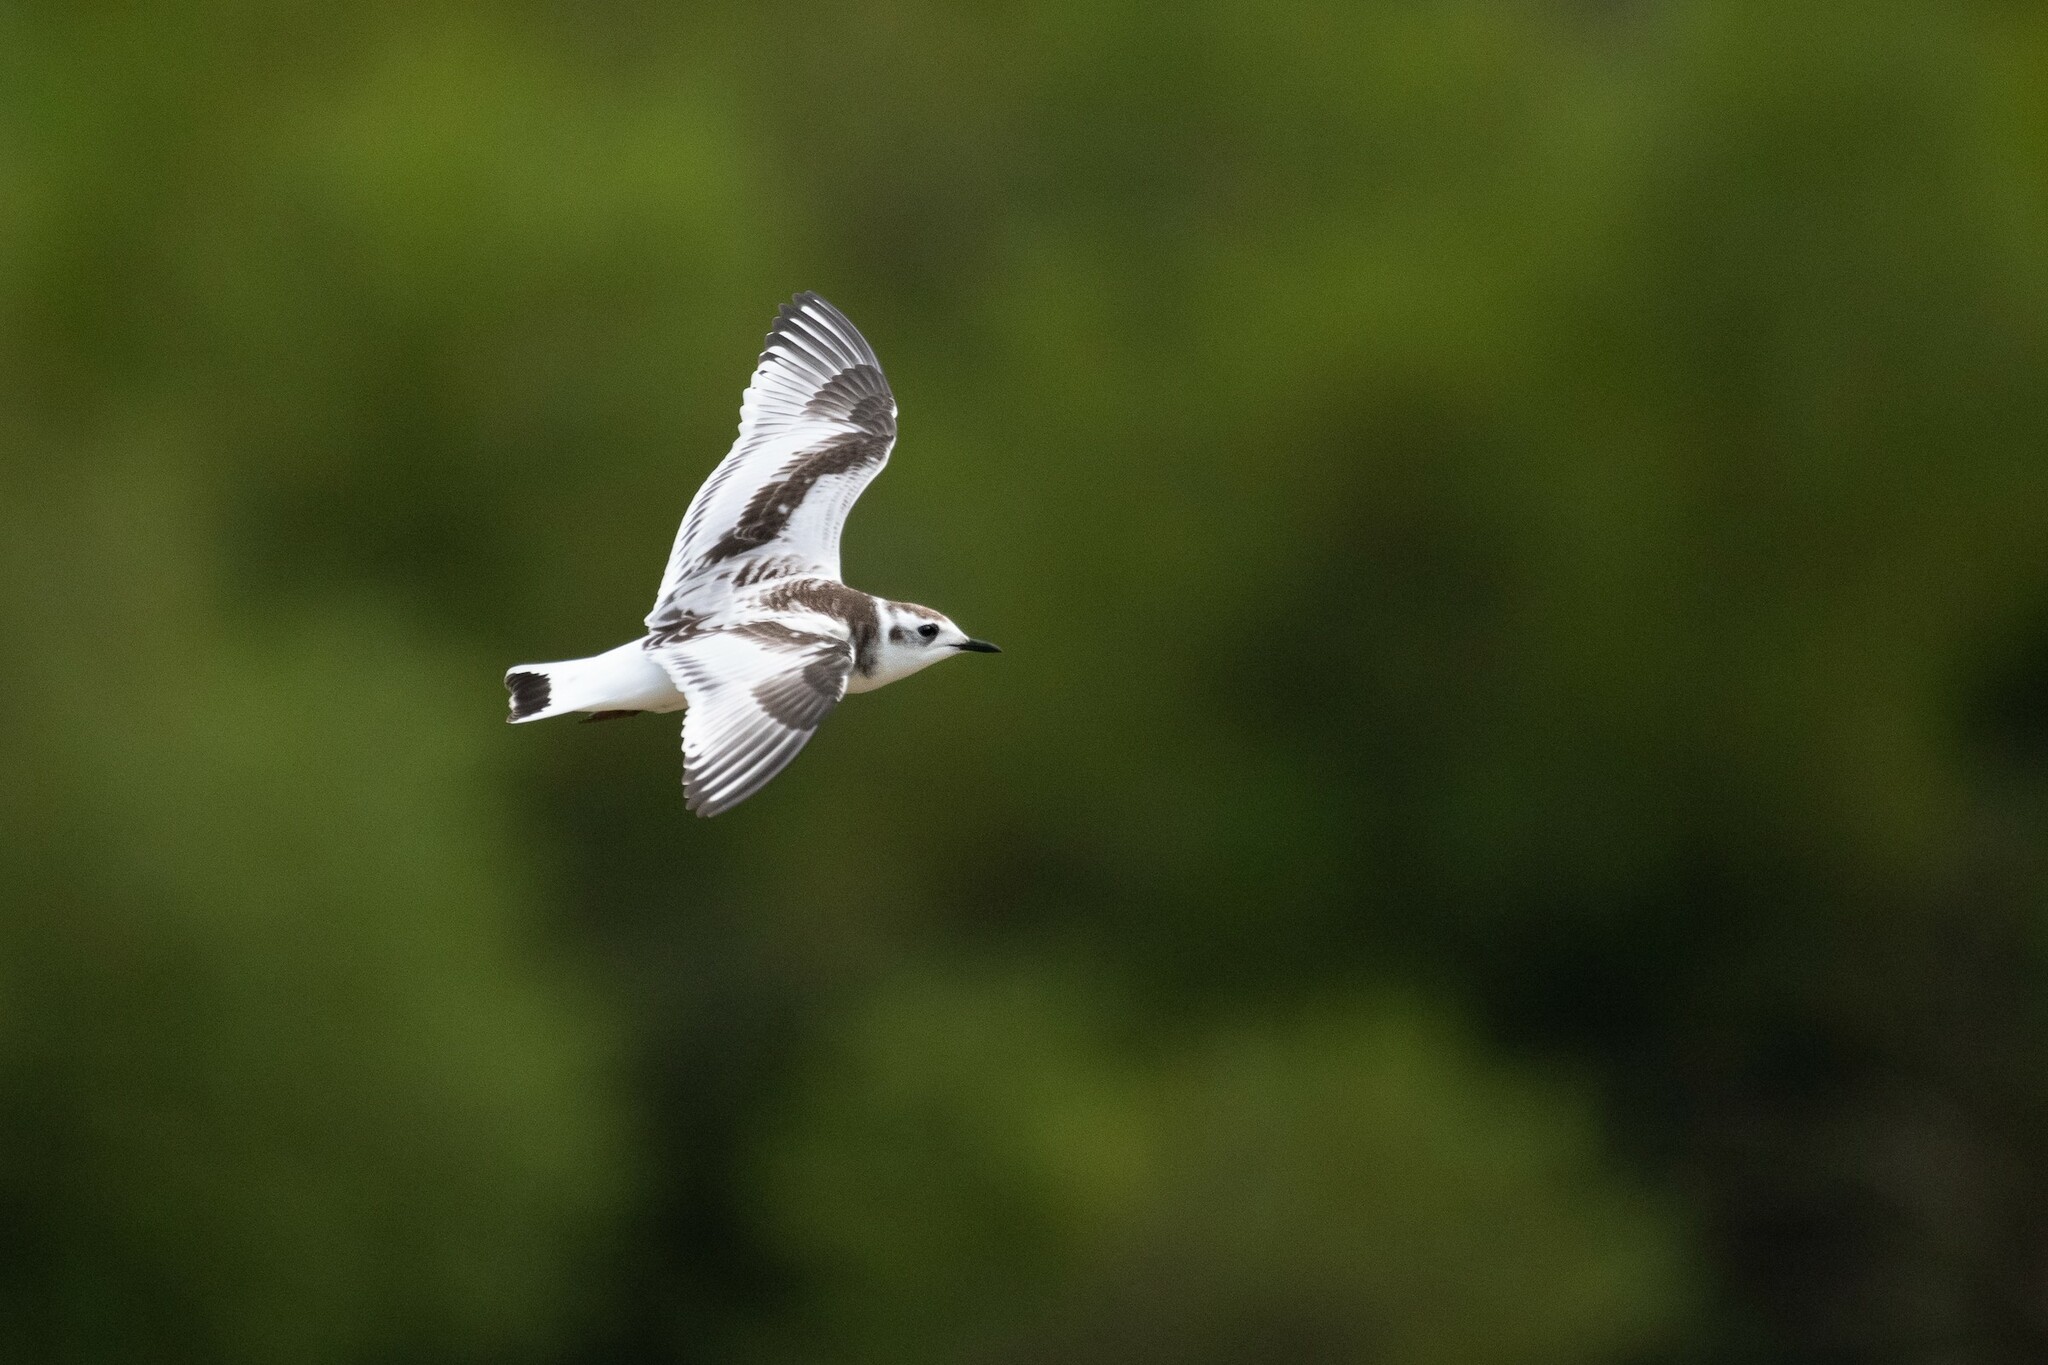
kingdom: Animalia
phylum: Chordata
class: Aves
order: Charadriiformes
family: Laridae
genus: Hydrocoloeus
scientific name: Hydrocoloeus minutus
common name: Little gull
